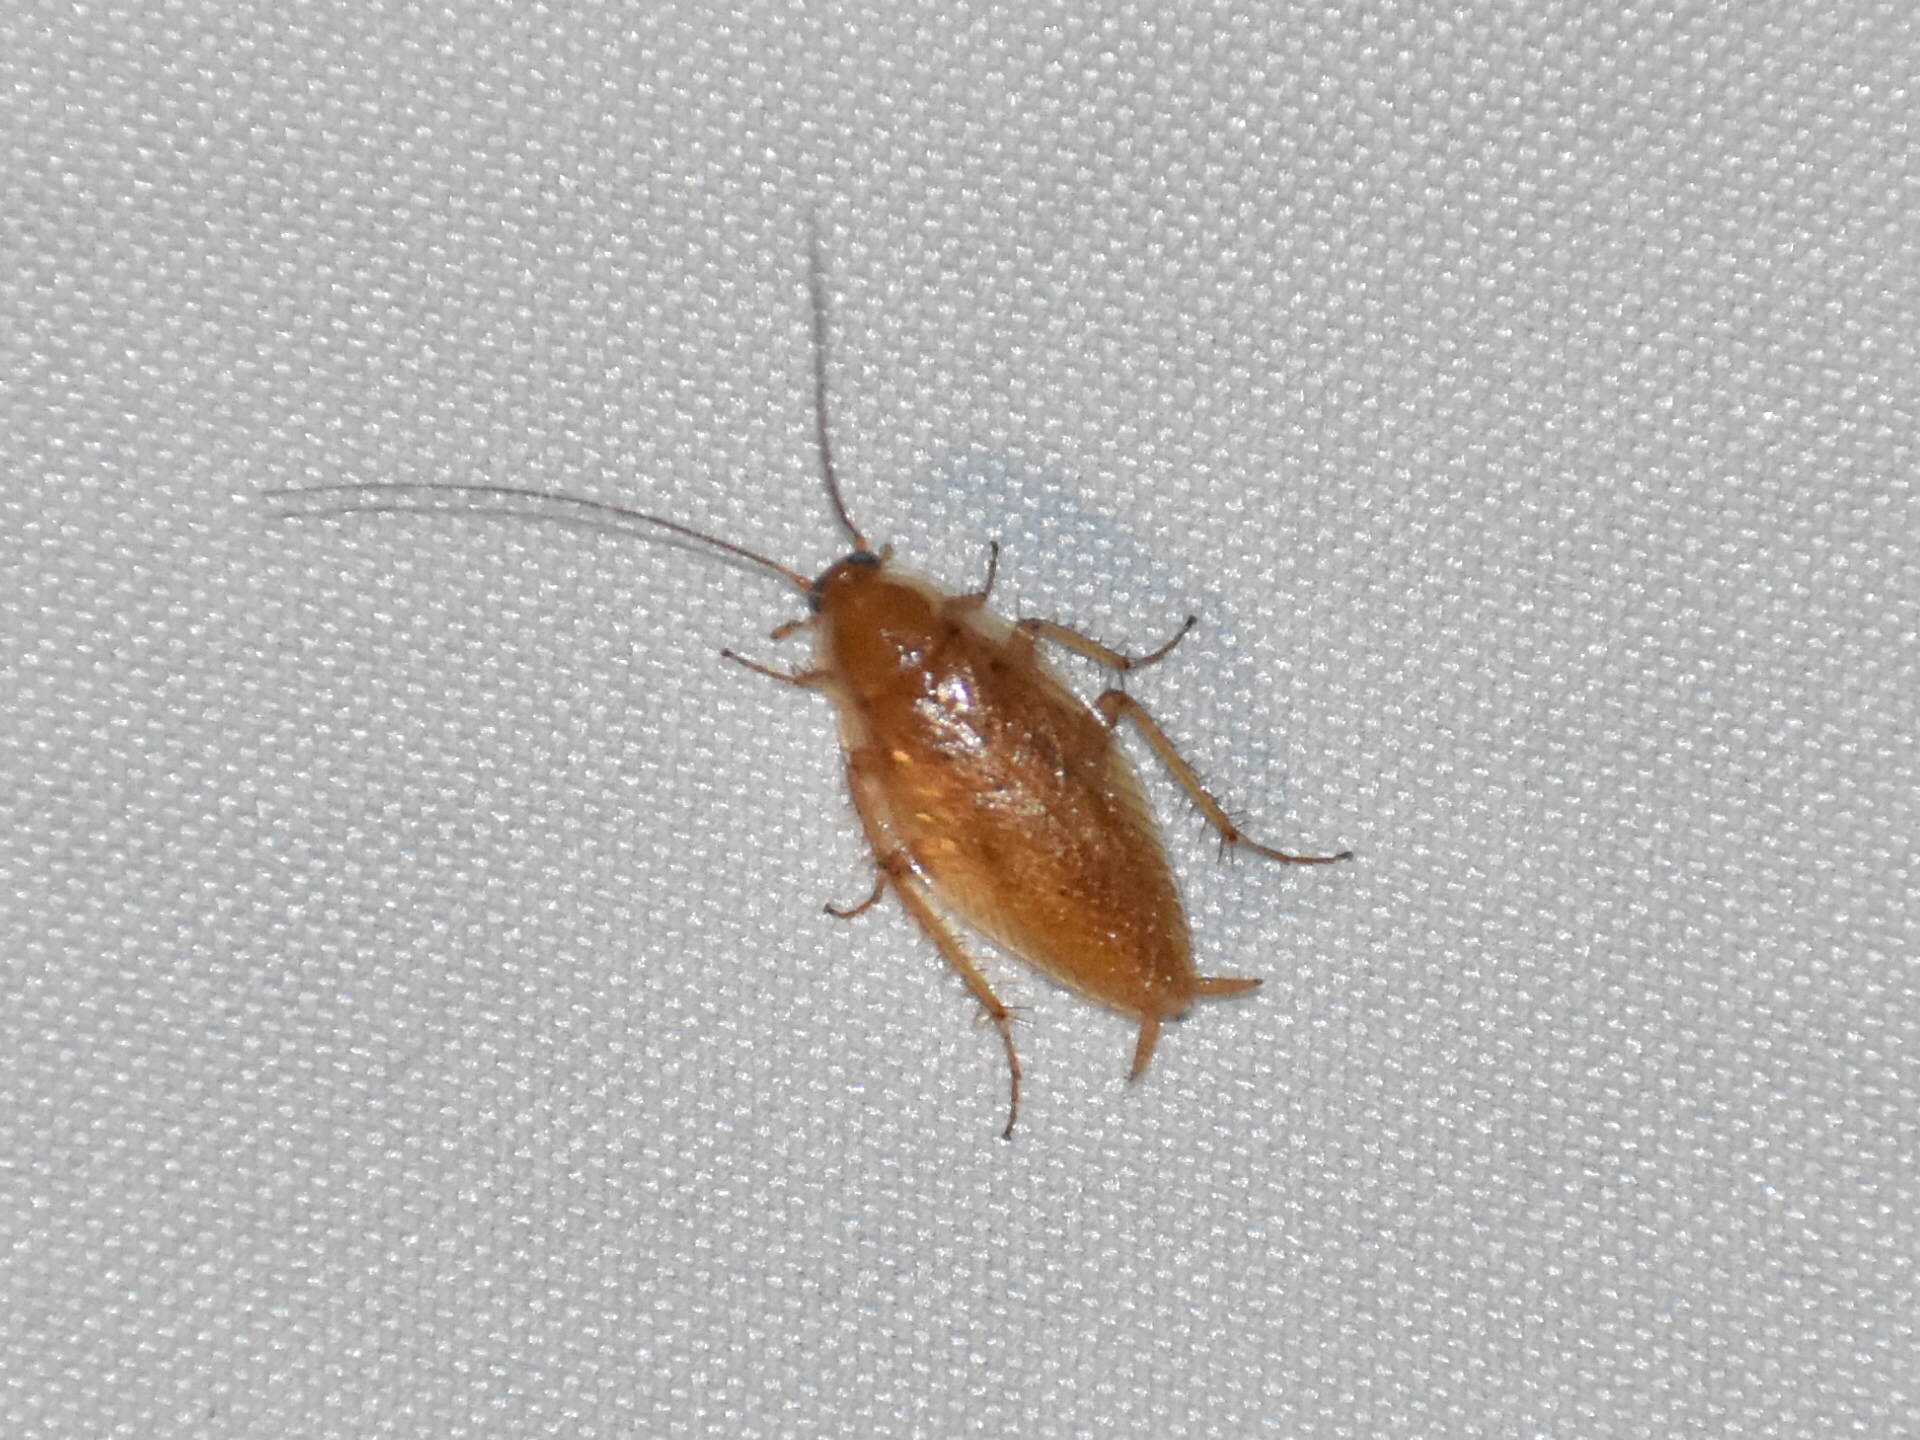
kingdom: Animalia
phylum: Arthropoda
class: Insecta
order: Blattodea
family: Ectobiidae
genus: Ectobius
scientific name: Ectobius pallidus
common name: Tawny cockroach
